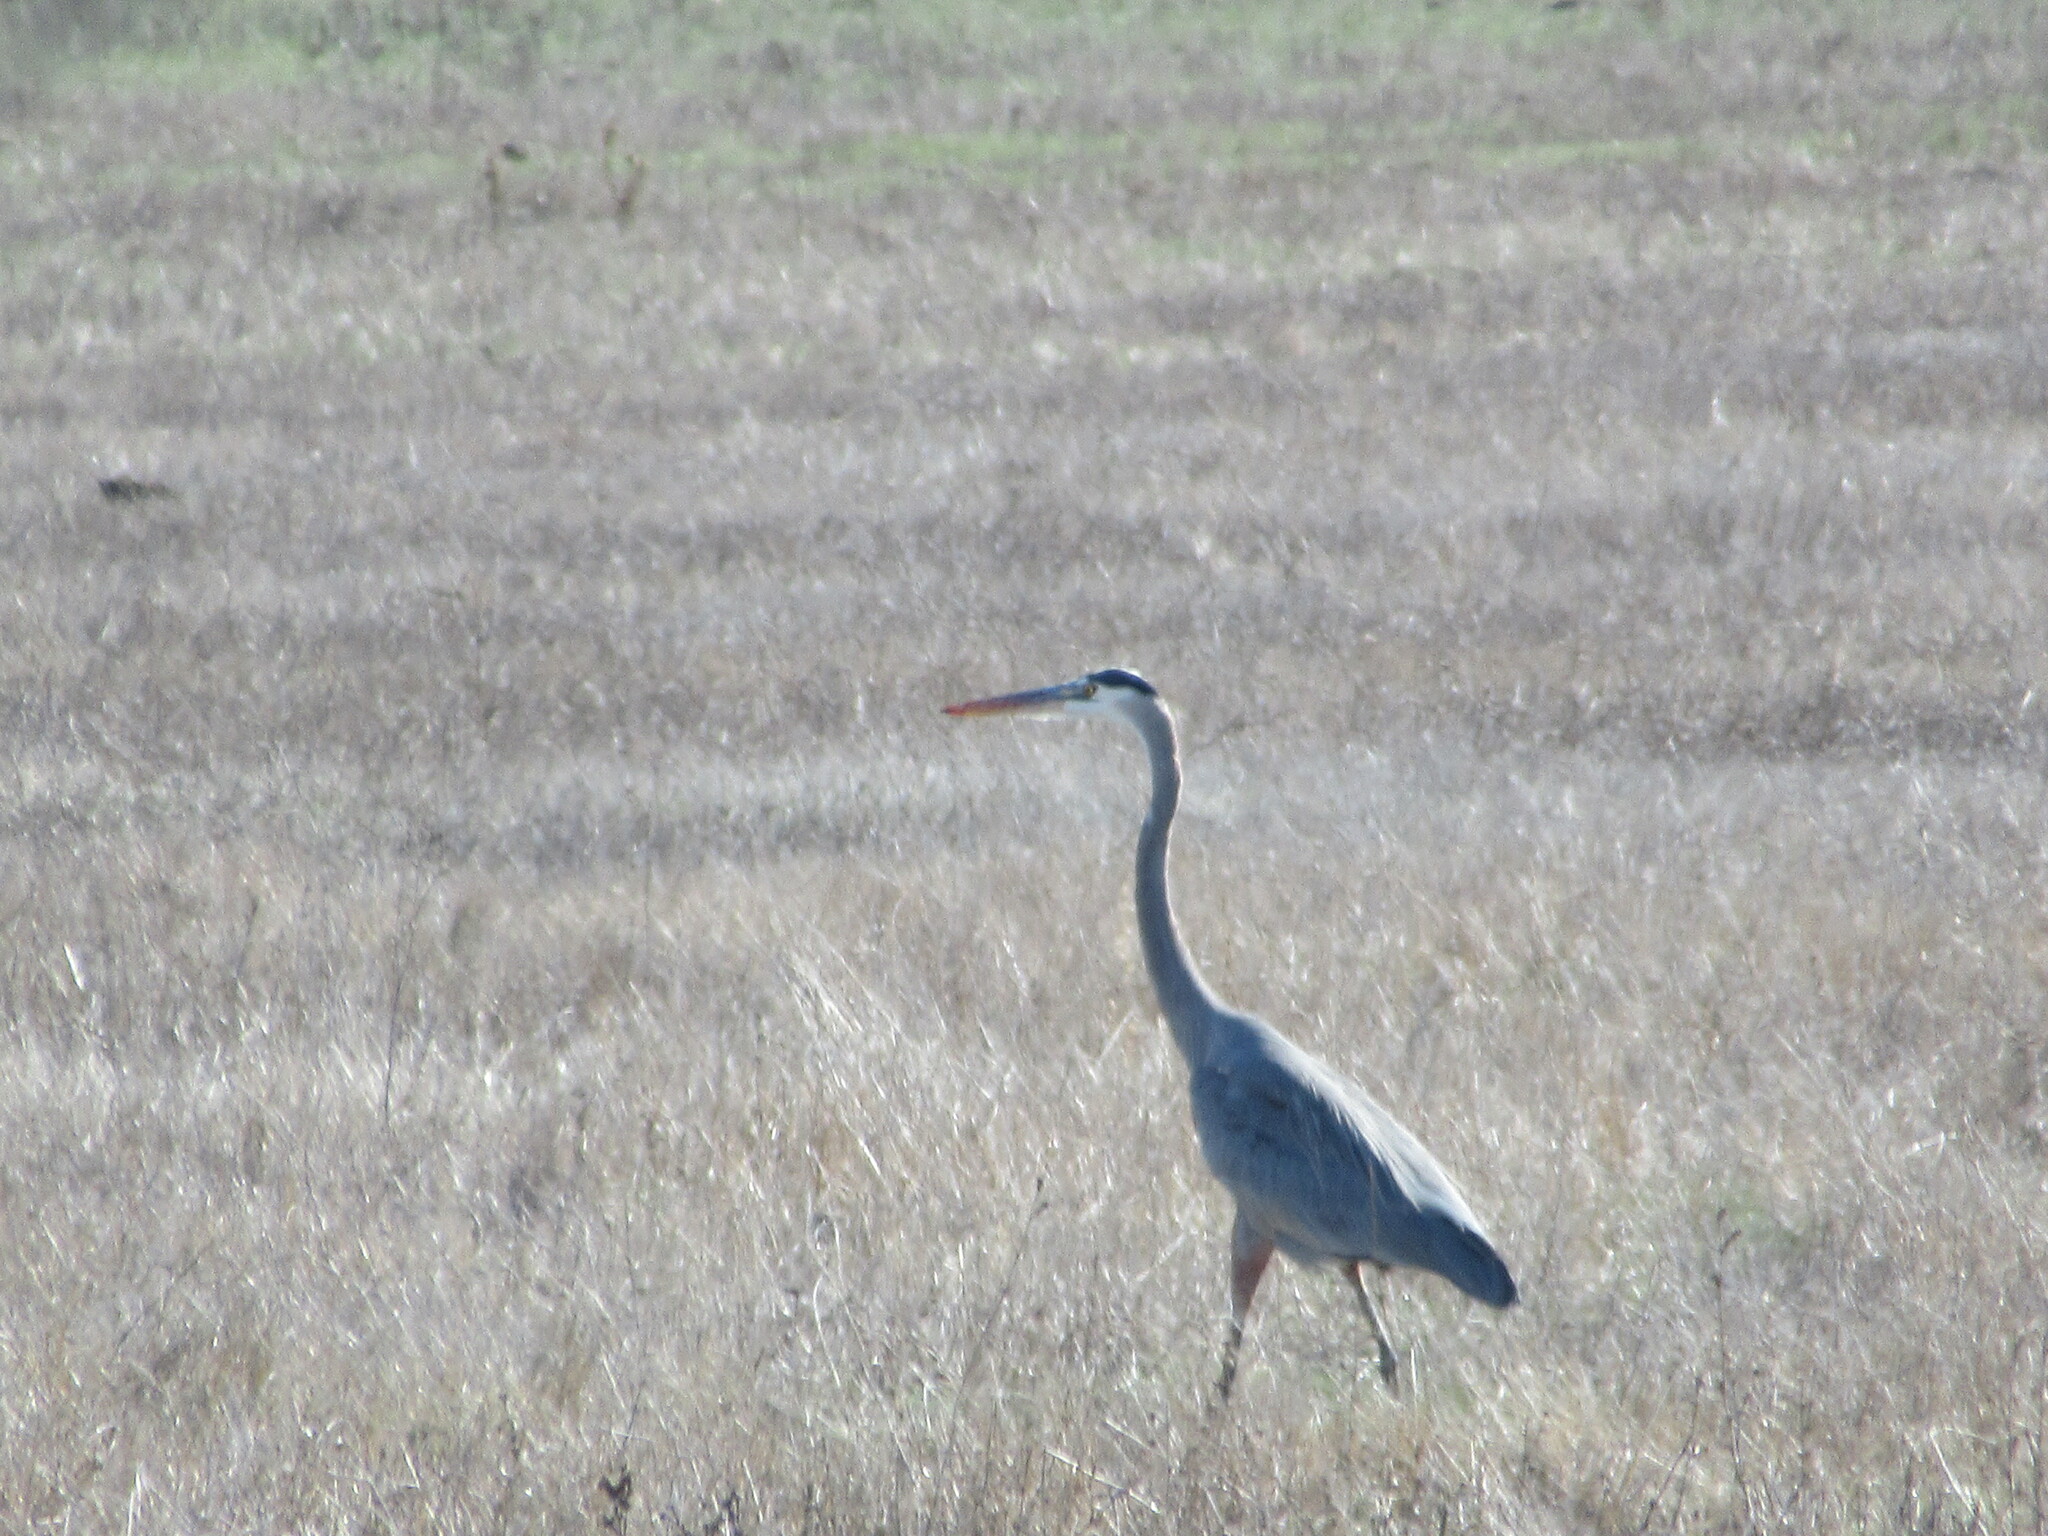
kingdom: Animalia
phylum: Chordata
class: Aves
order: Pelecaniformes
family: Ardeidae
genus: Ardea
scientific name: Ardea herodias
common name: Great blue heron
